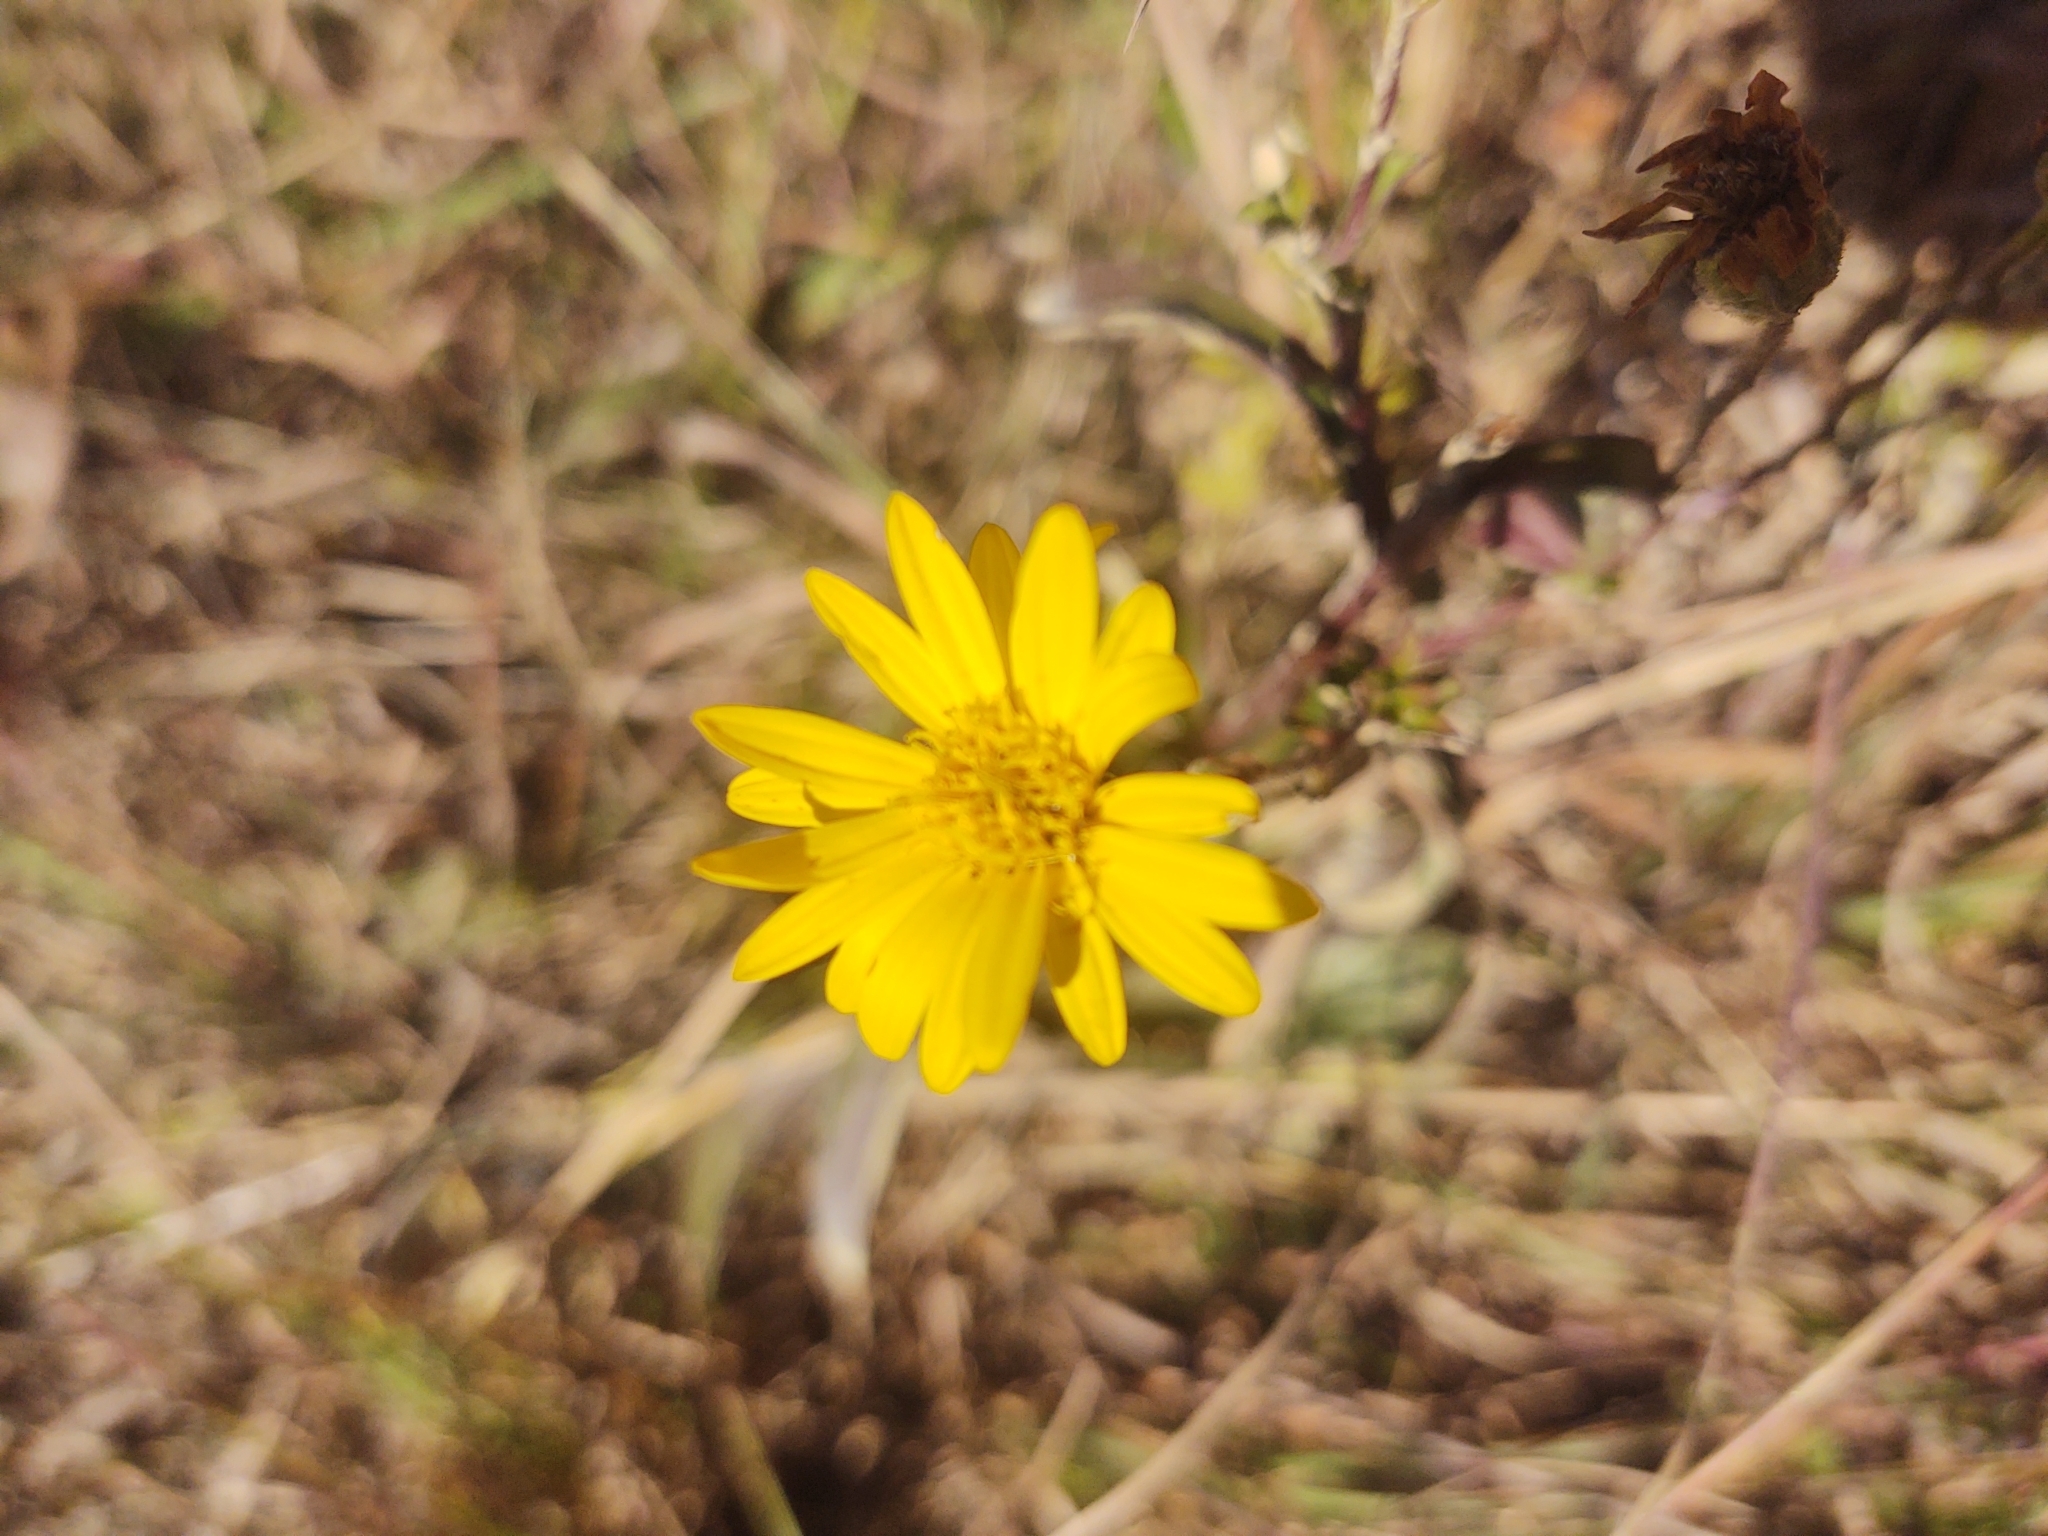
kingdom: Plantae
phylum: Tracheophyta
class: Magnoliopsida
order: Asterales
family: Asteraceae
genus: Heterotheca
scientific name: Heterotheca subaxillaris
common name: Camphorweed
